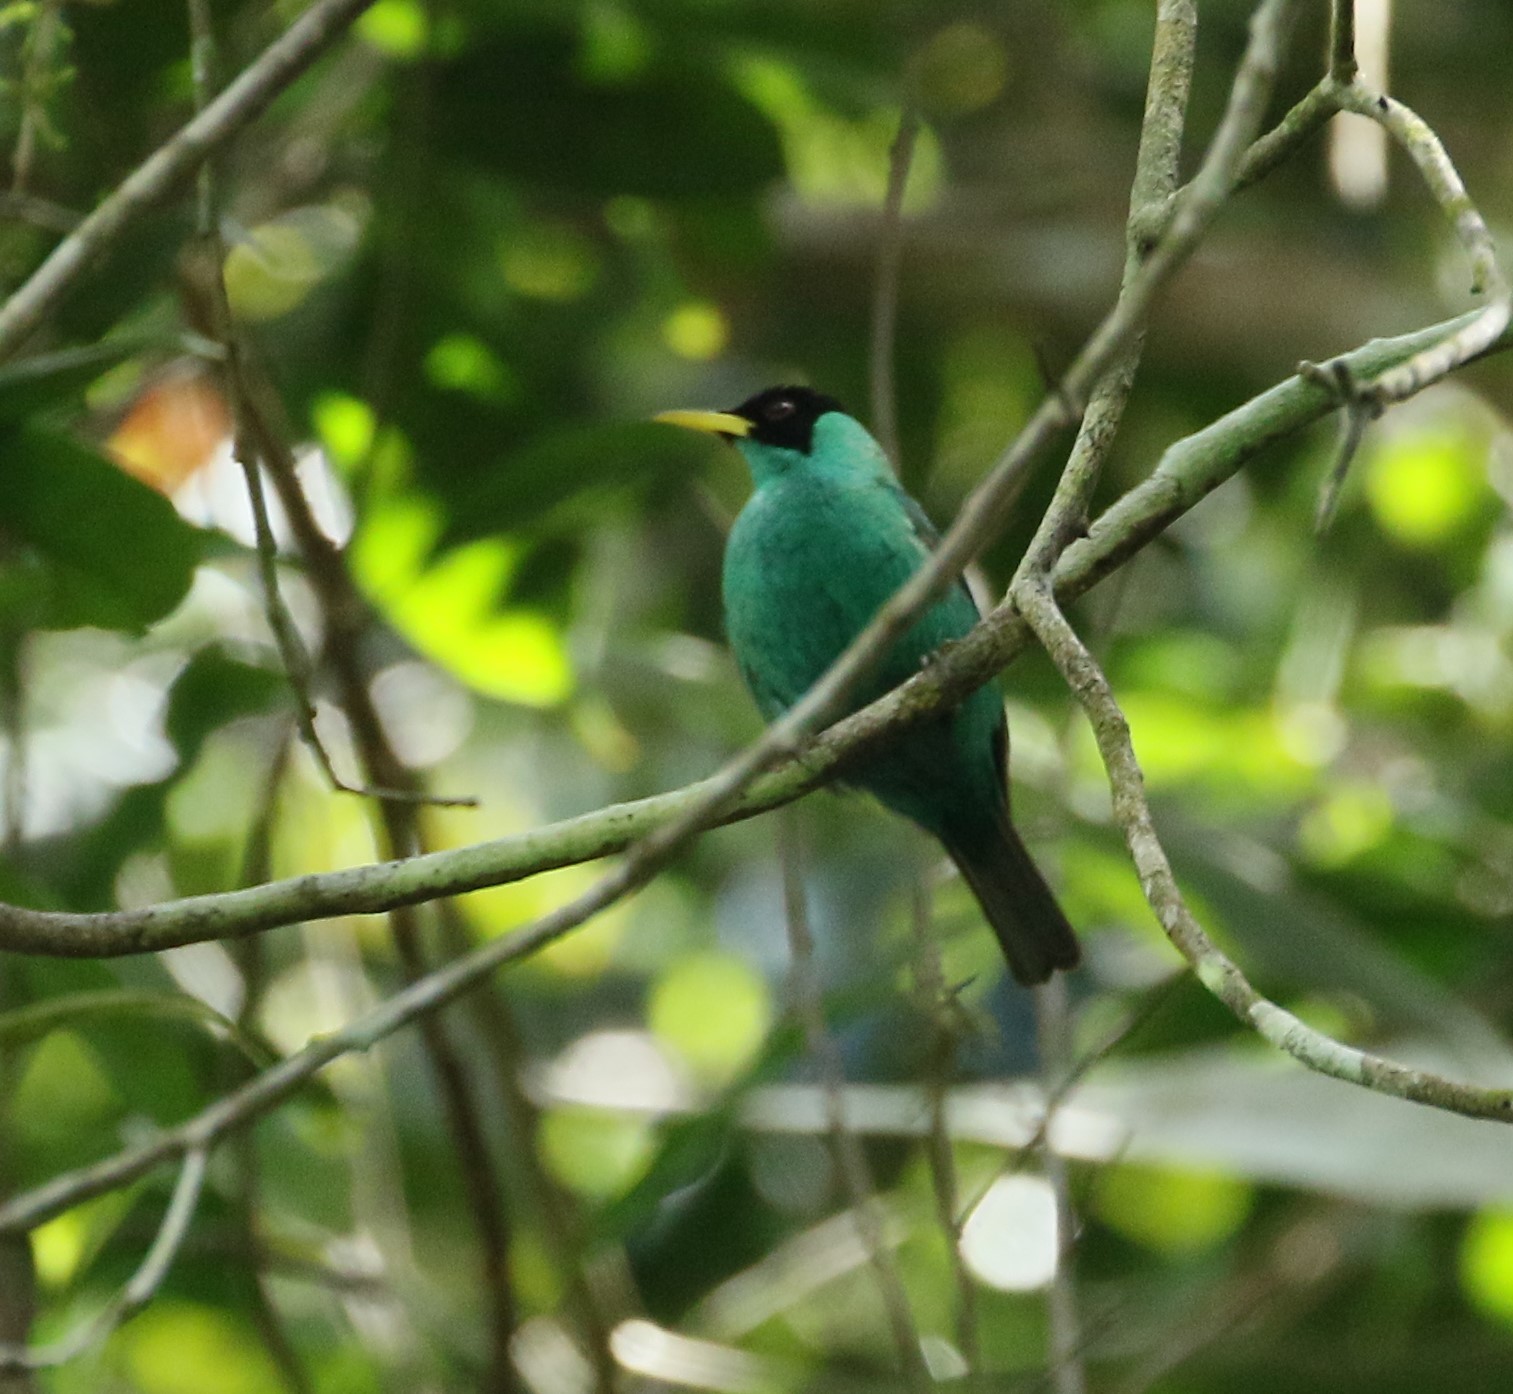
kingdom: Animalia
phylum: Chordata
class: Aves
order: Passeriformes
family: Thraupidae
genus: Chlorophanes
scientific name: Chlorophanes spiza
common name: Green honeycreeper
